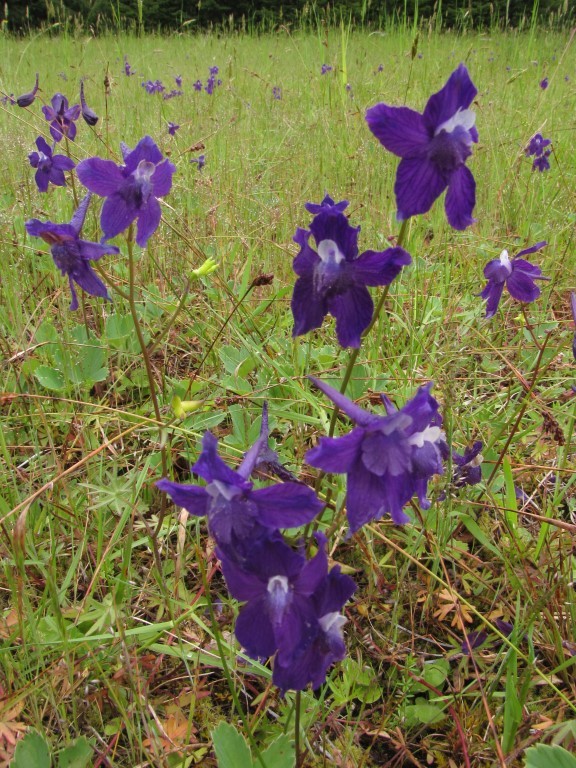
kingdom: Plantae
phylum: Tracheophyta
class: Magnoliopsida
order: Ranunculales
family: Ranunculaceae
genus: Delphinium
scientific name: Delphinium menziesii
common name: Menzies's larkspur
